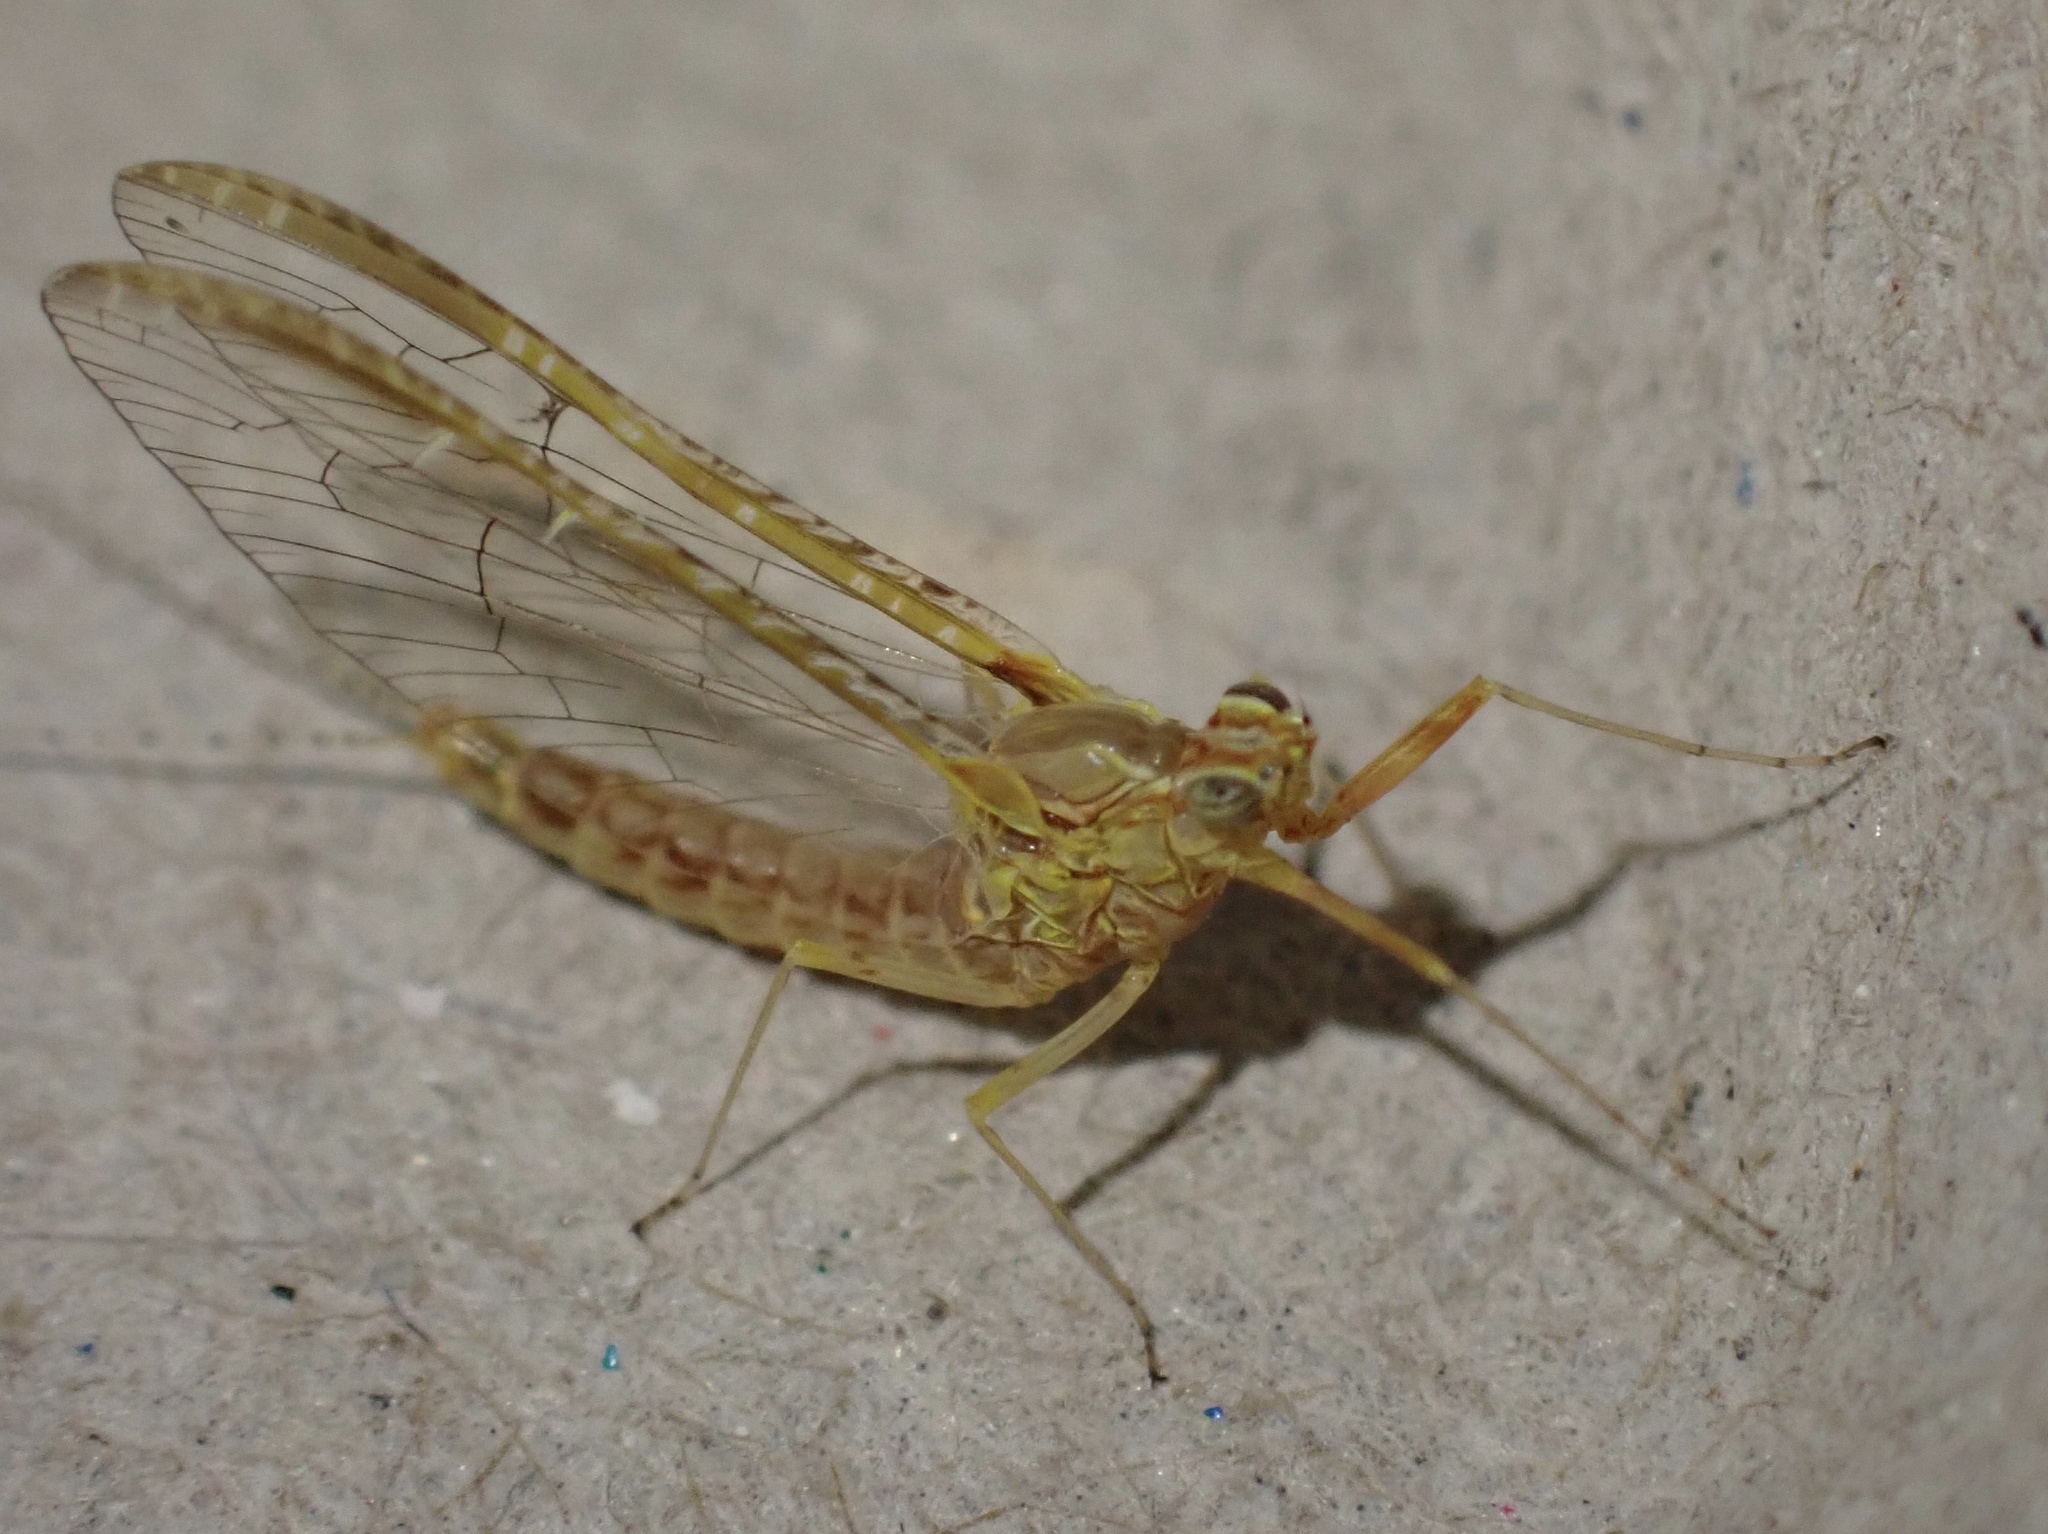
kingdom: Animalia
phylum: Arthropoda
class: Insecta
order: Ephemeroptera
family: Baetidae
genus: Cloeon
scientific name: Cloeon dipterum
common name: Pond olive
